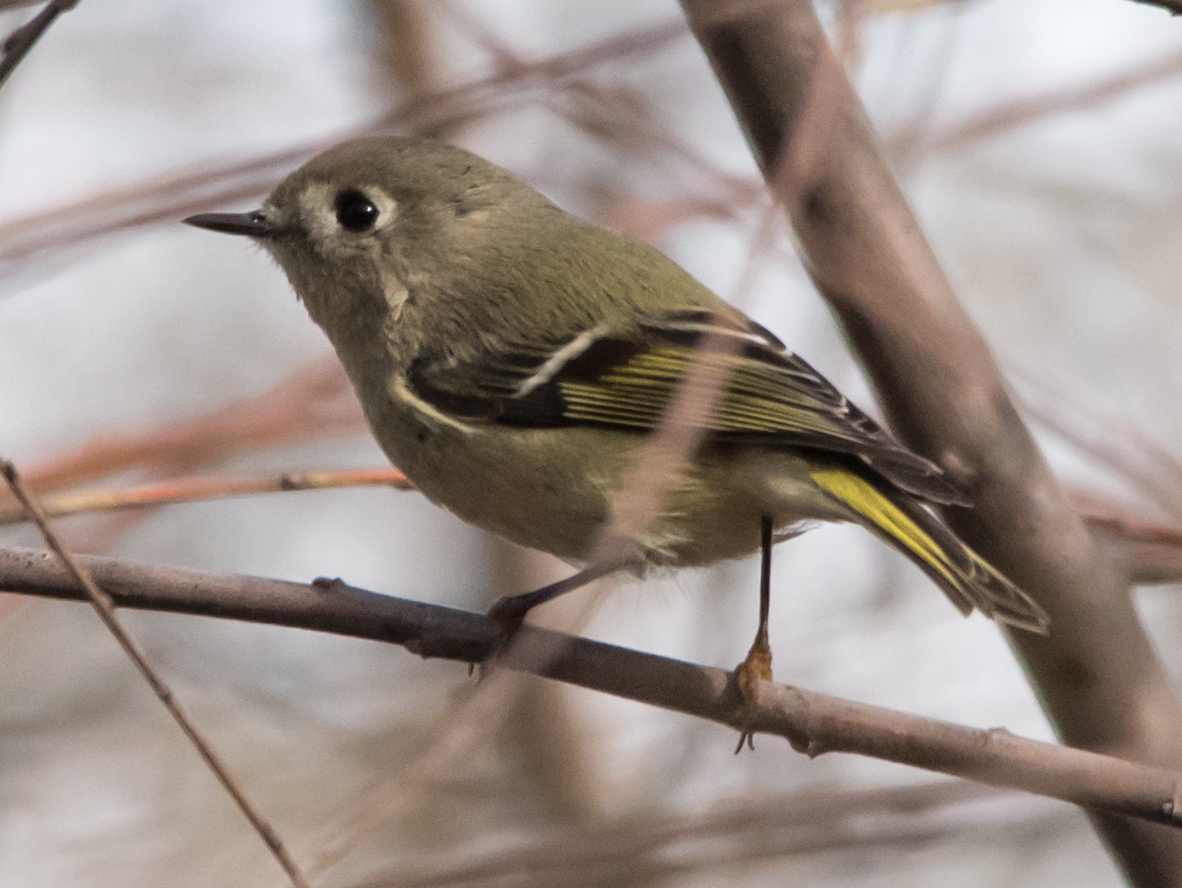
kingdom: Animalia
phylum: Chordata
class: Aves
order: Passeriformes
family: Regulidae
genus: Regulus
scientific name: Regulus calendula
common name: Ruby-crowned kinglet
